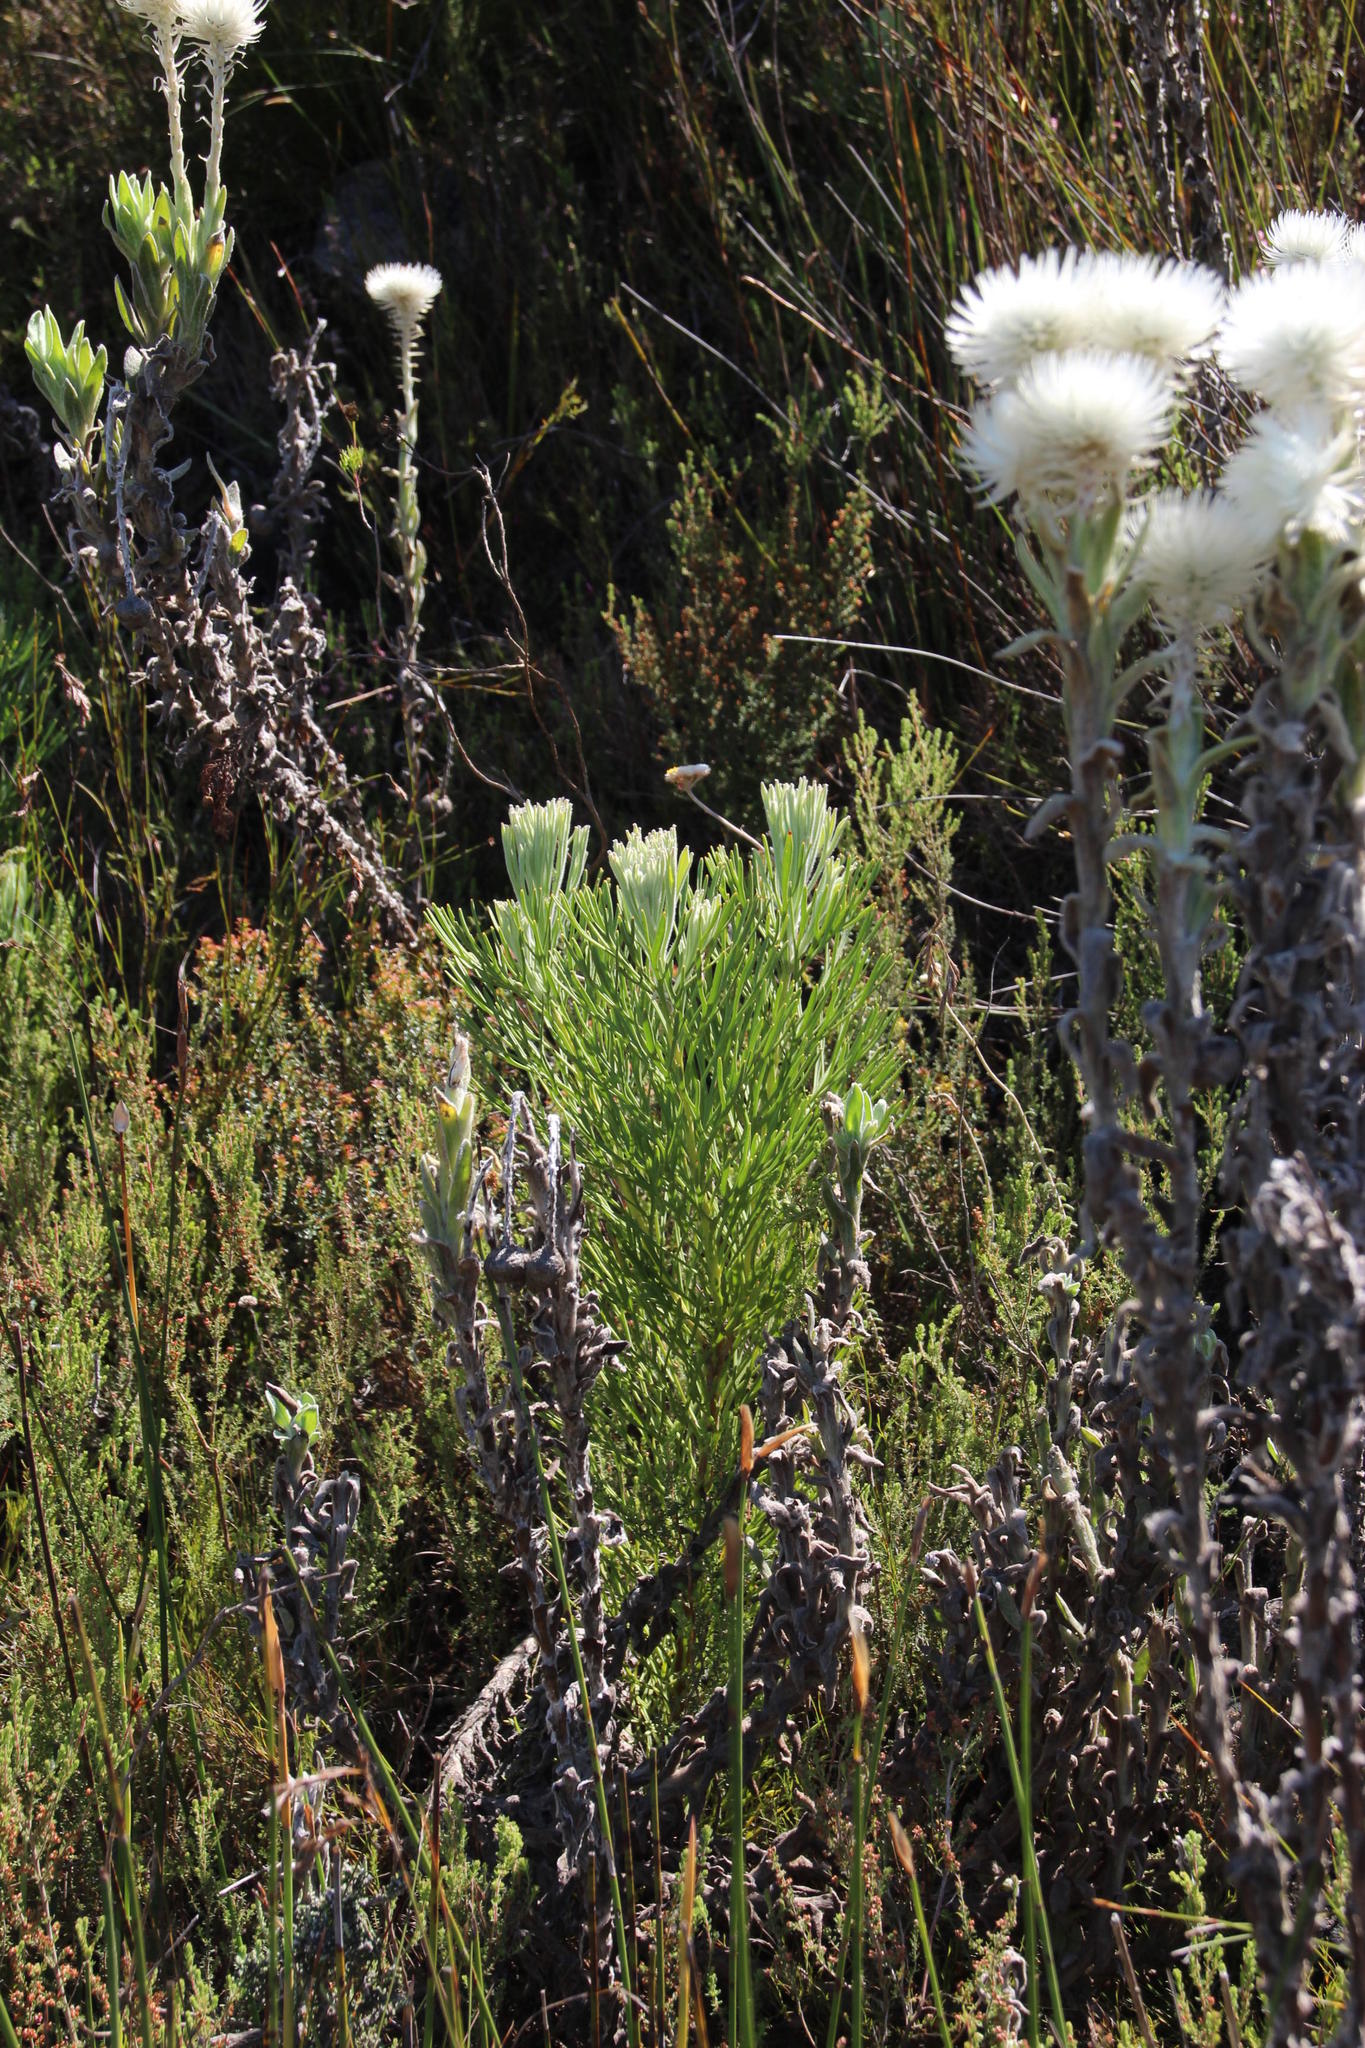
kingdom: Plantae
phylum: Tracheophyta
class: Magnoliopsida
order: Proteales
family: Proteaceae
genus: Paranomus
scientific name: Paranomus sceptrum-gustavianus
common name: King gustav's sceptre
